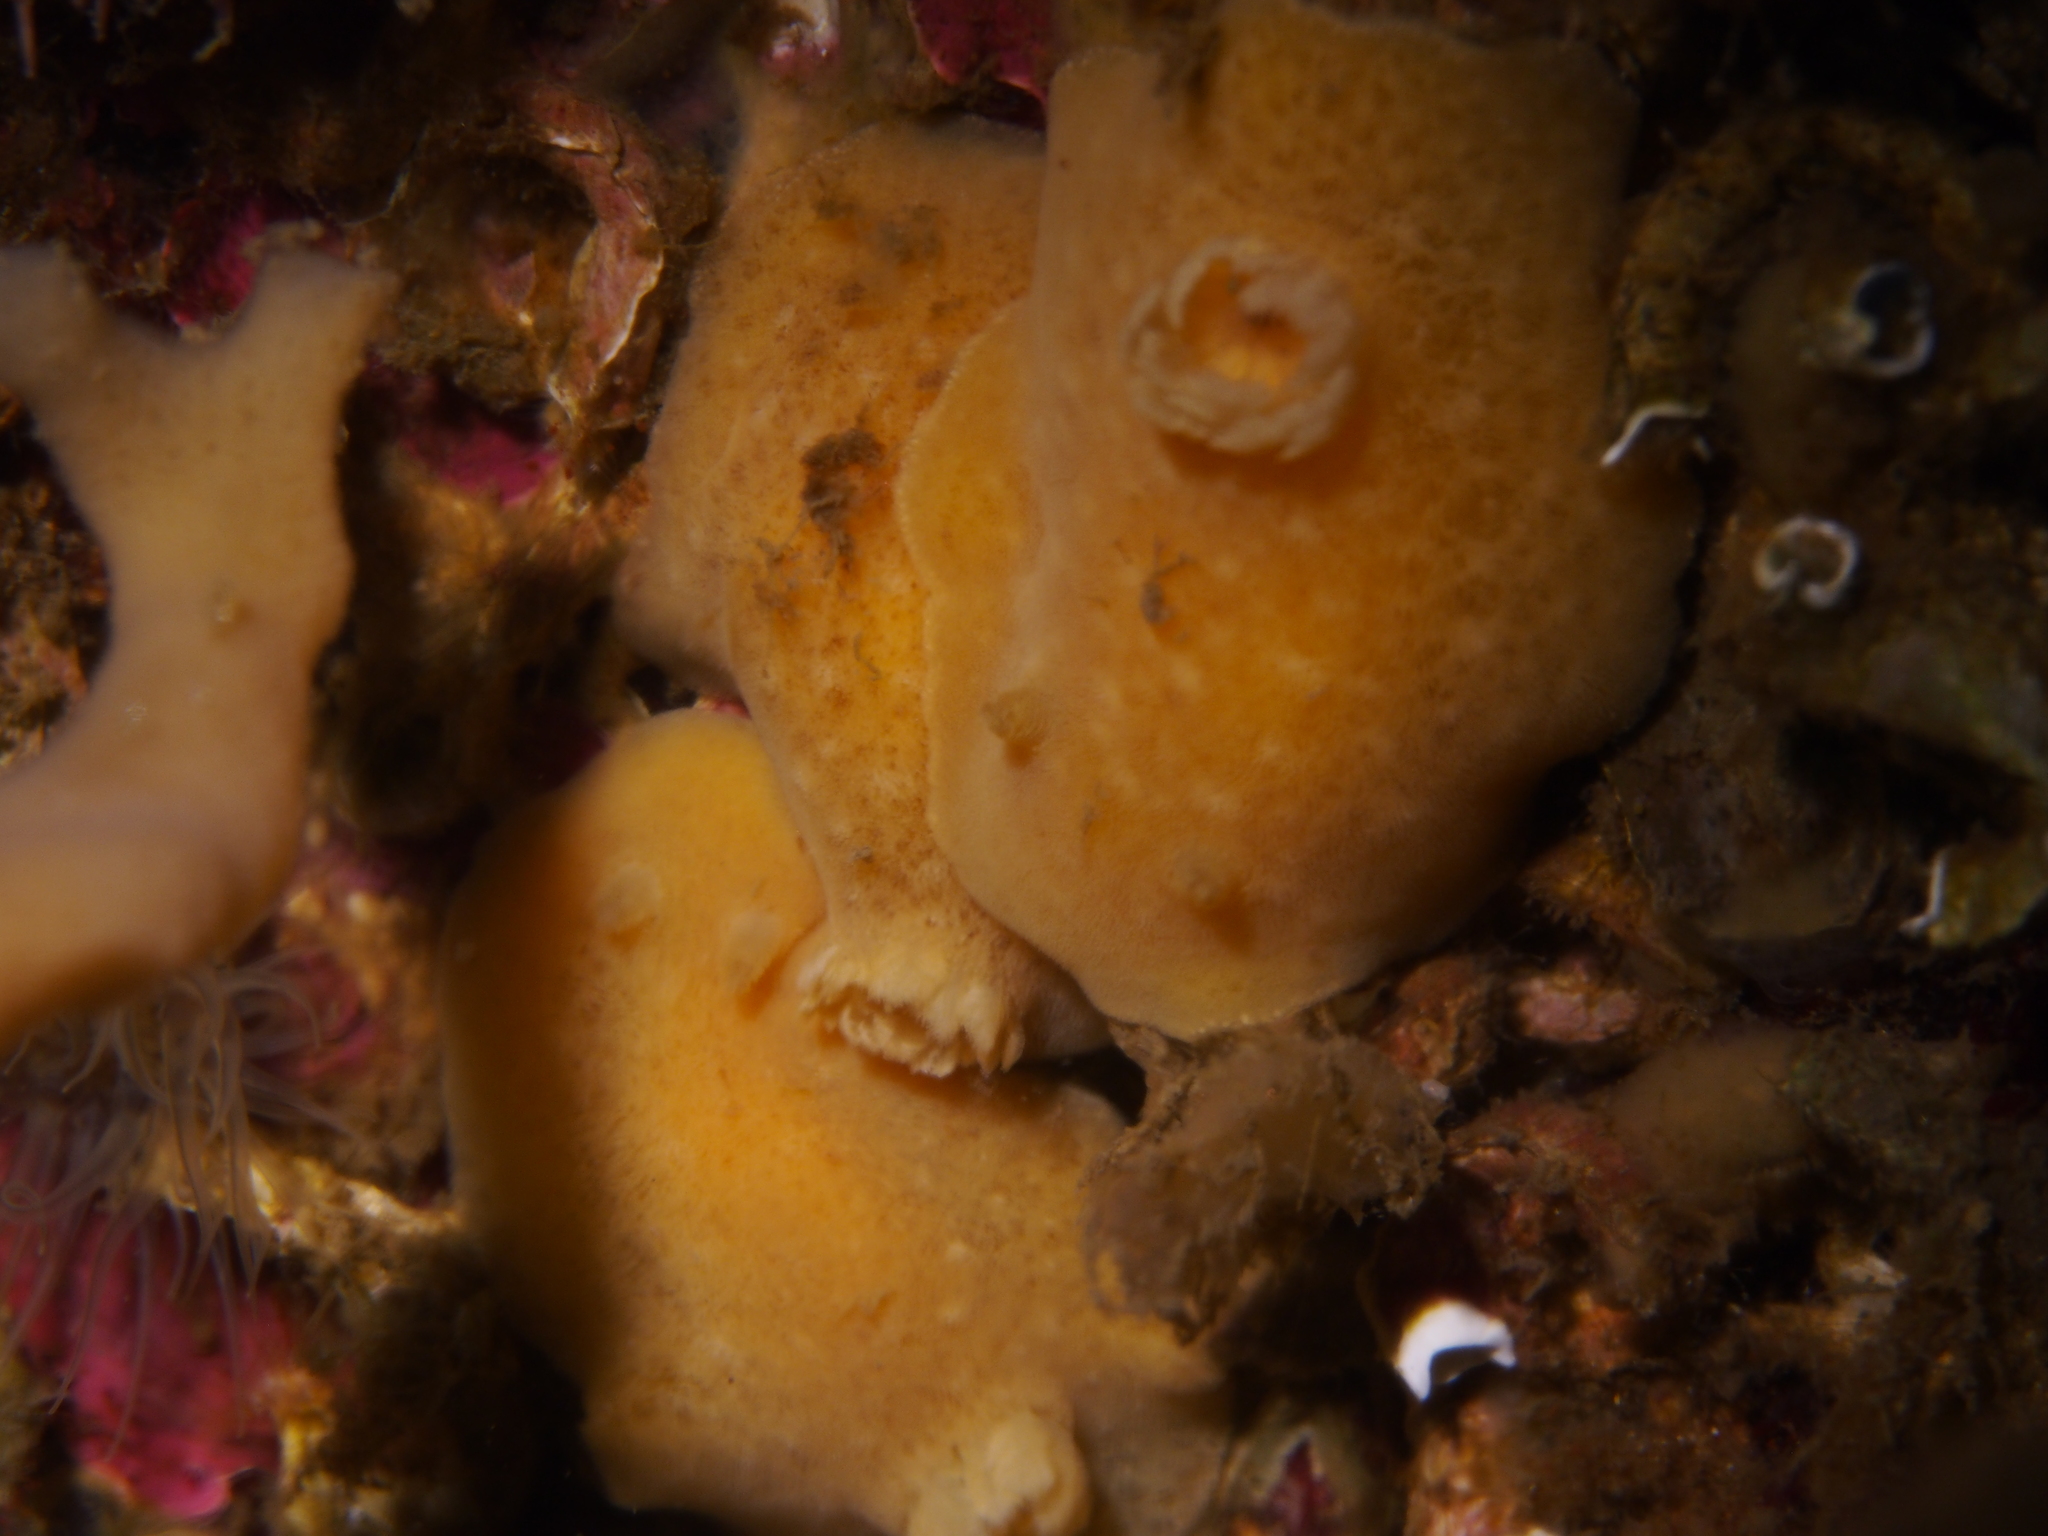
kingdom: Animalia
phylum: Mollusca
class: Gastropoda
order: Nudibranchia
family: Discodorididae
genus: Jorunna
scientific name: Jorunna tomentosa
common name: Grey sea slug
